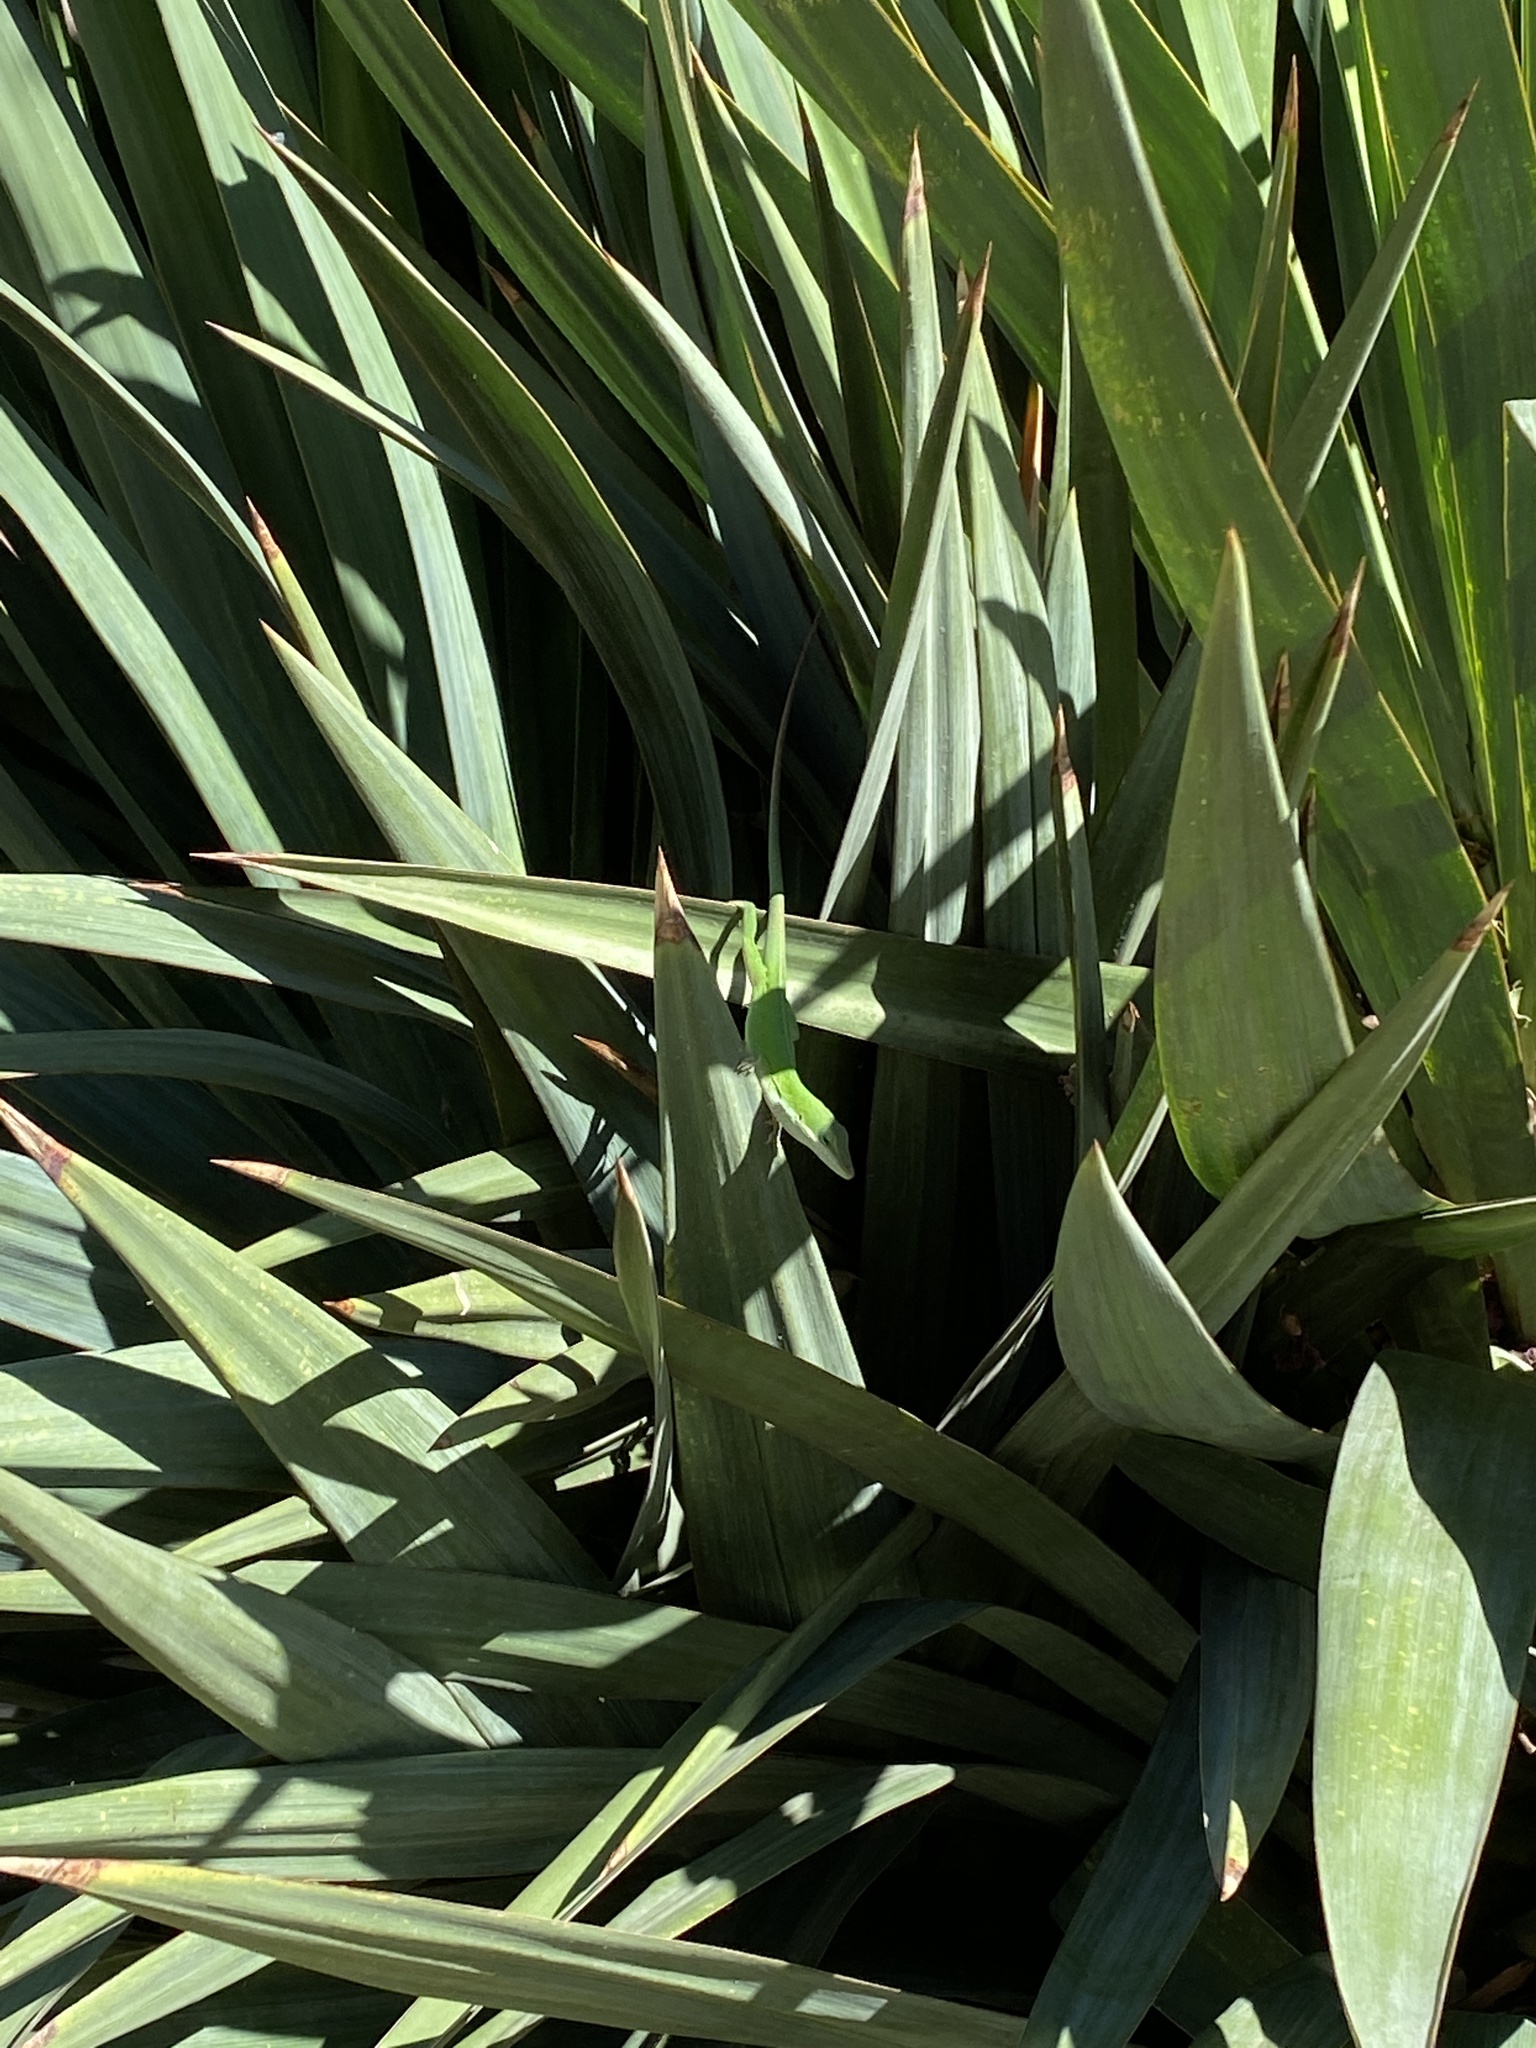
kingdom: Animalia
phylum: Chordata
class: Squamata
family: Dactyloidae
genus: Anolis
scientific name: Anolis carolinensis
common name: Green anole
